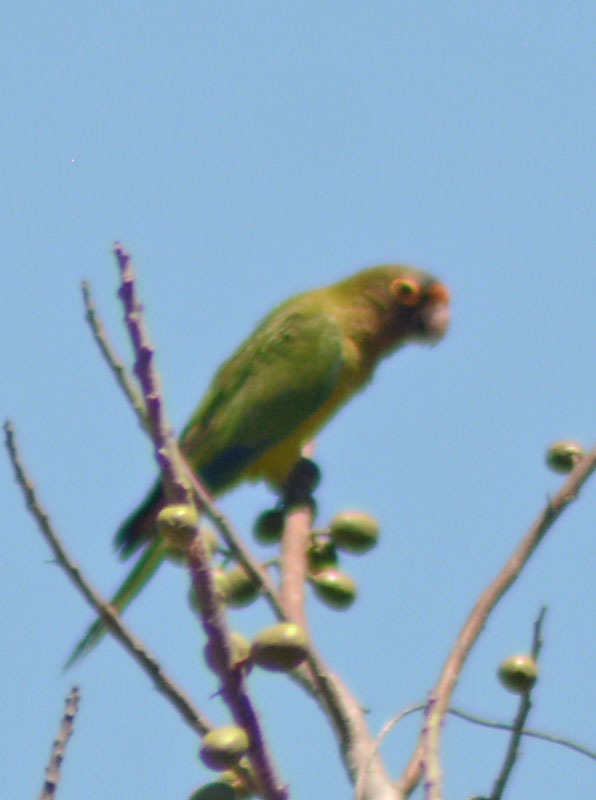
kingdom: Animalia
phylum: Chordata
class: Aves
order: Psittaciformes
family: Psittacidae
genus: Aratinga
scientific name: Aratinga canicularis
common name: Orange-fronted parakeet
